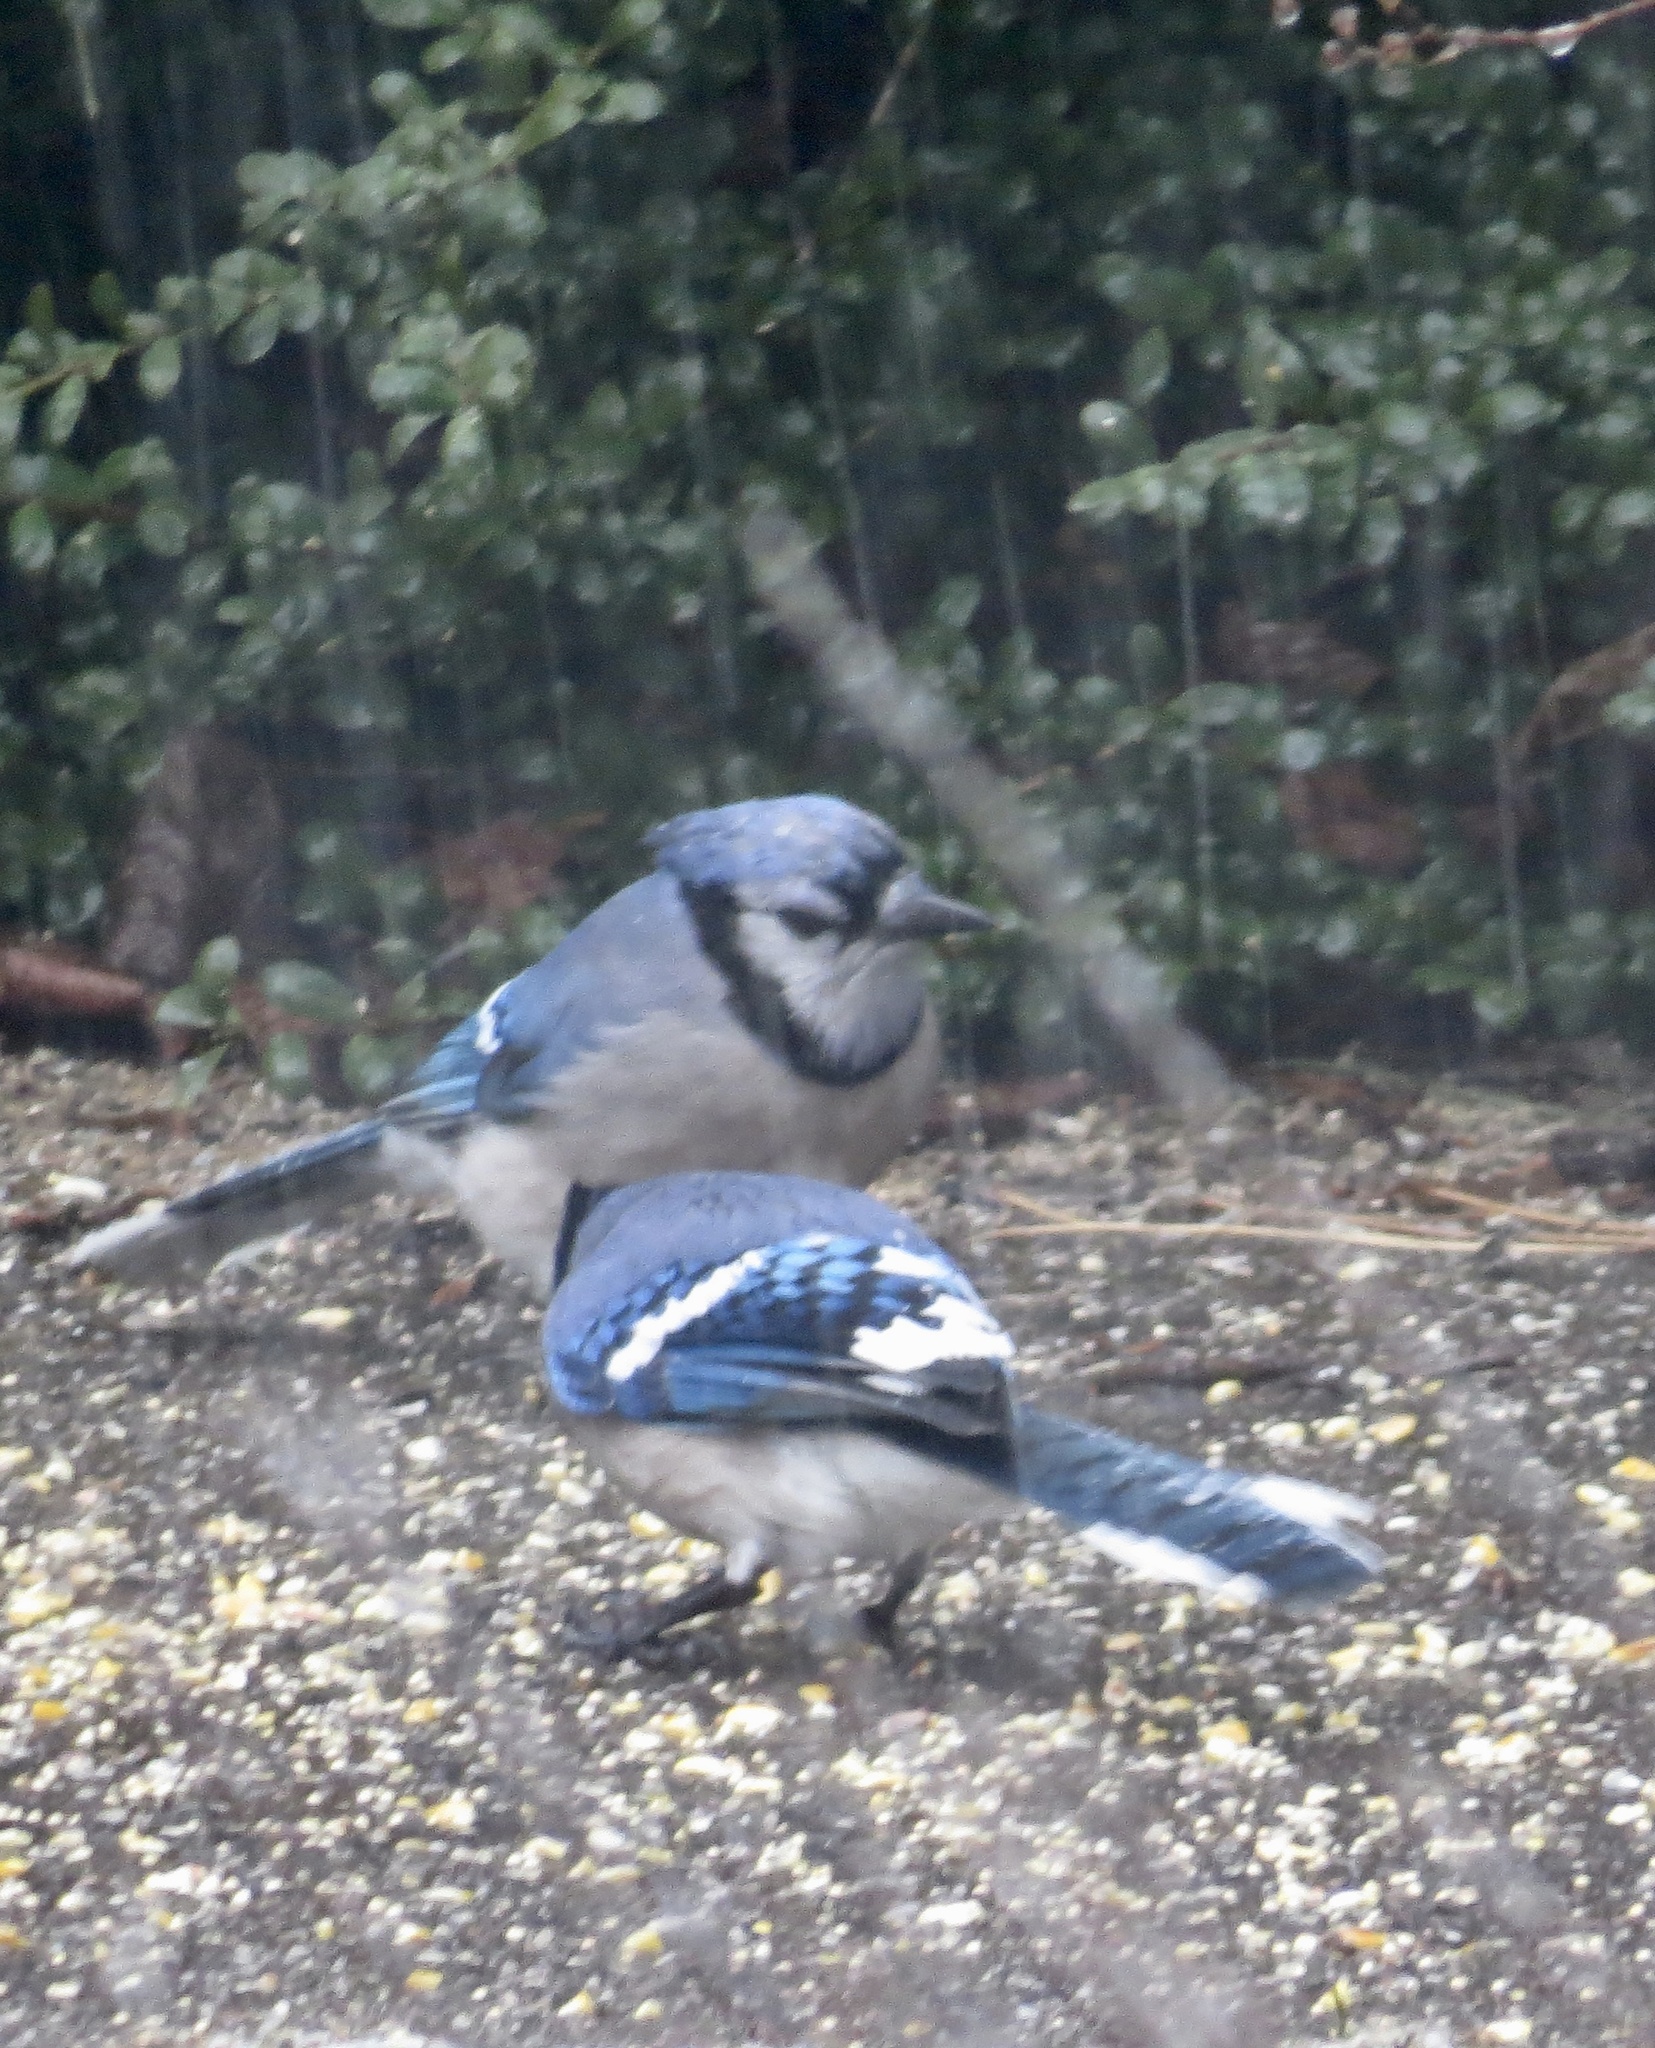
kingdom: Animalia
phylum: Chordata
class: Aves
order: Passeriformes
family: Corvidae
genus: Cyanocitta
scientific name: Cyanocitta cristata
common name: Blue jay
